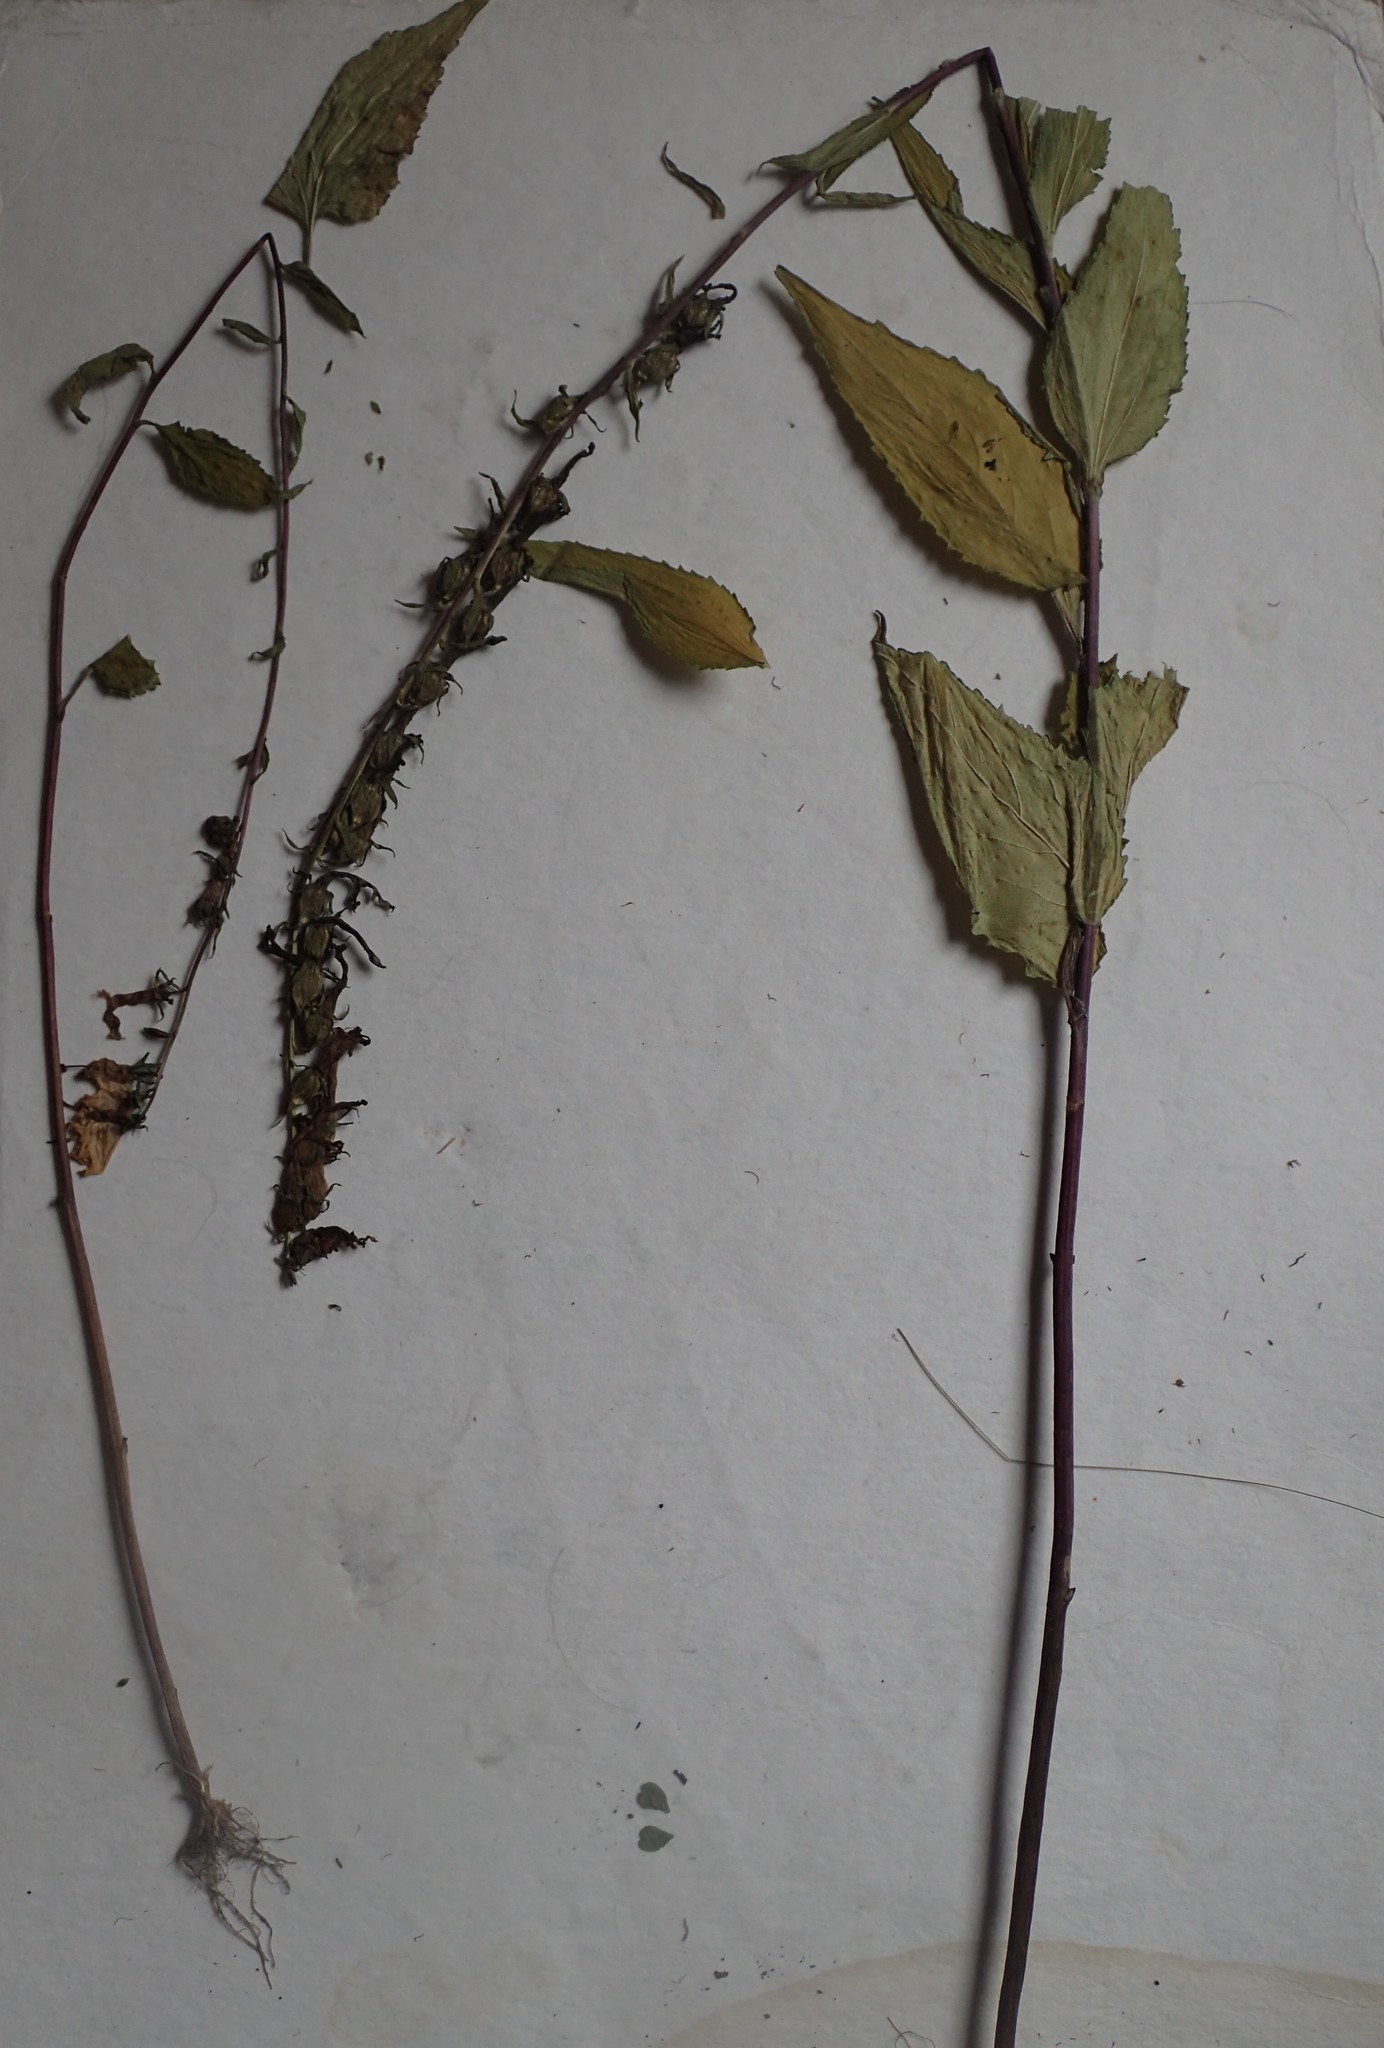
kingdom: Plantae
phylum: Tracheophyta
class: Magnoliopsida
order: Lamiales
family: Lamiaceae
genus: Agastache
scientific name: Agastache foeniculum
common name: Anise hyssop
